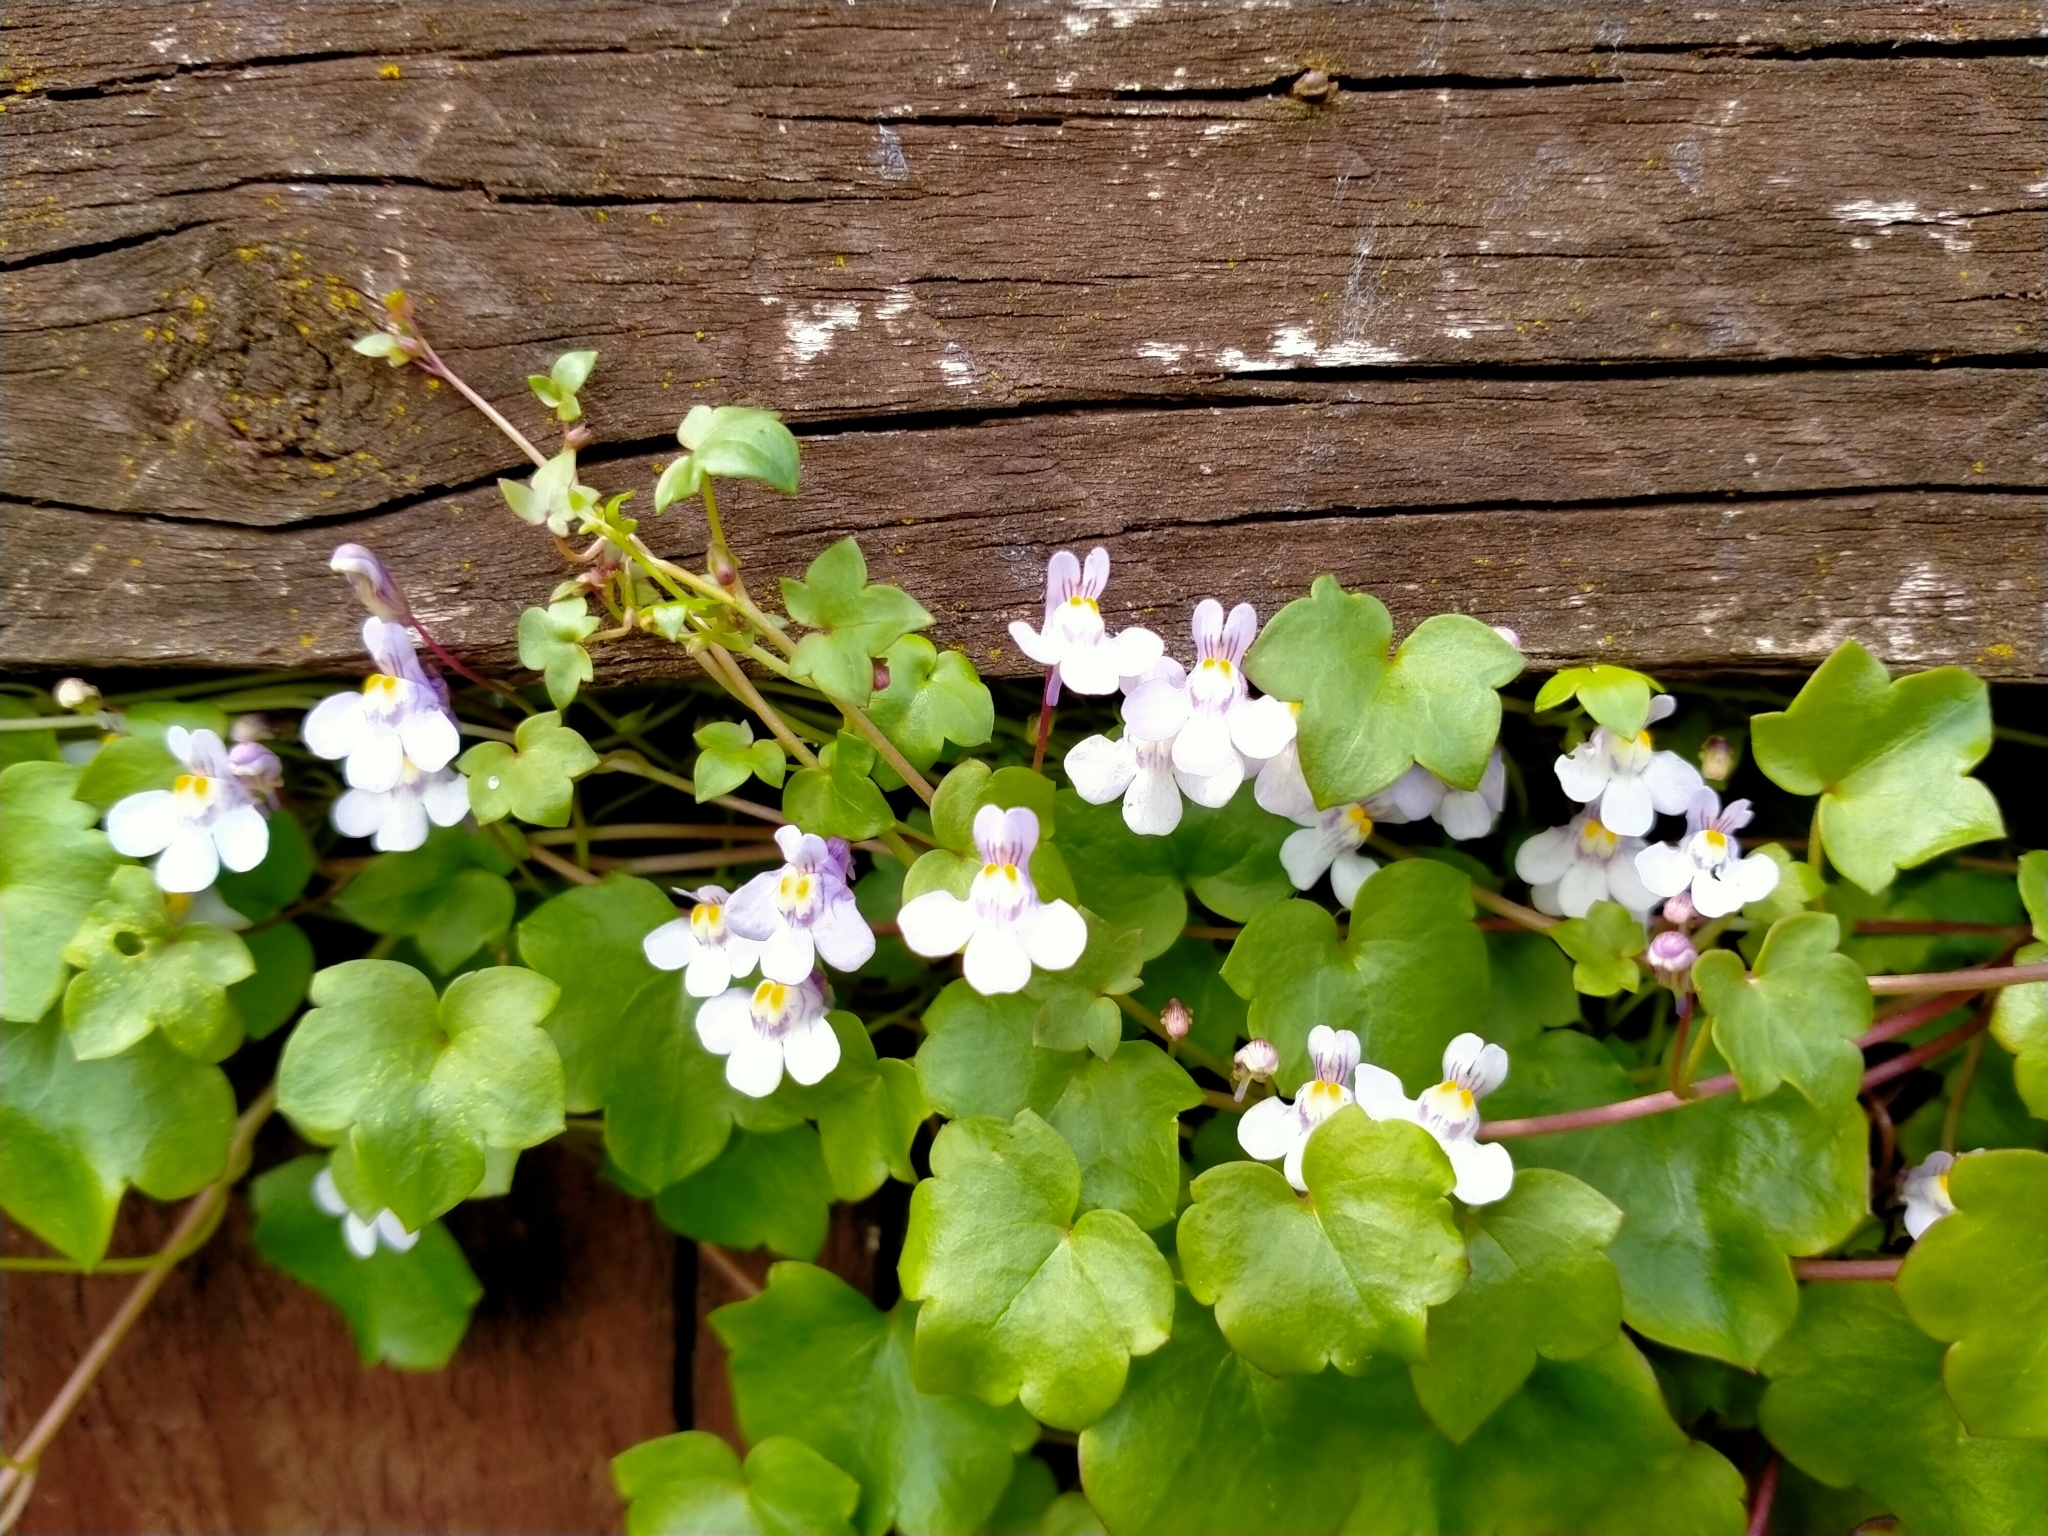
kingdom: Plantae
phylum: Tracheophyta
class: Magnoliopsida
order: Lamiales
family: Plantaginaceae
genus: Cymbalaria
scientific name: Cymbalaria muralis
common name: Ivy-leaved toadflax
